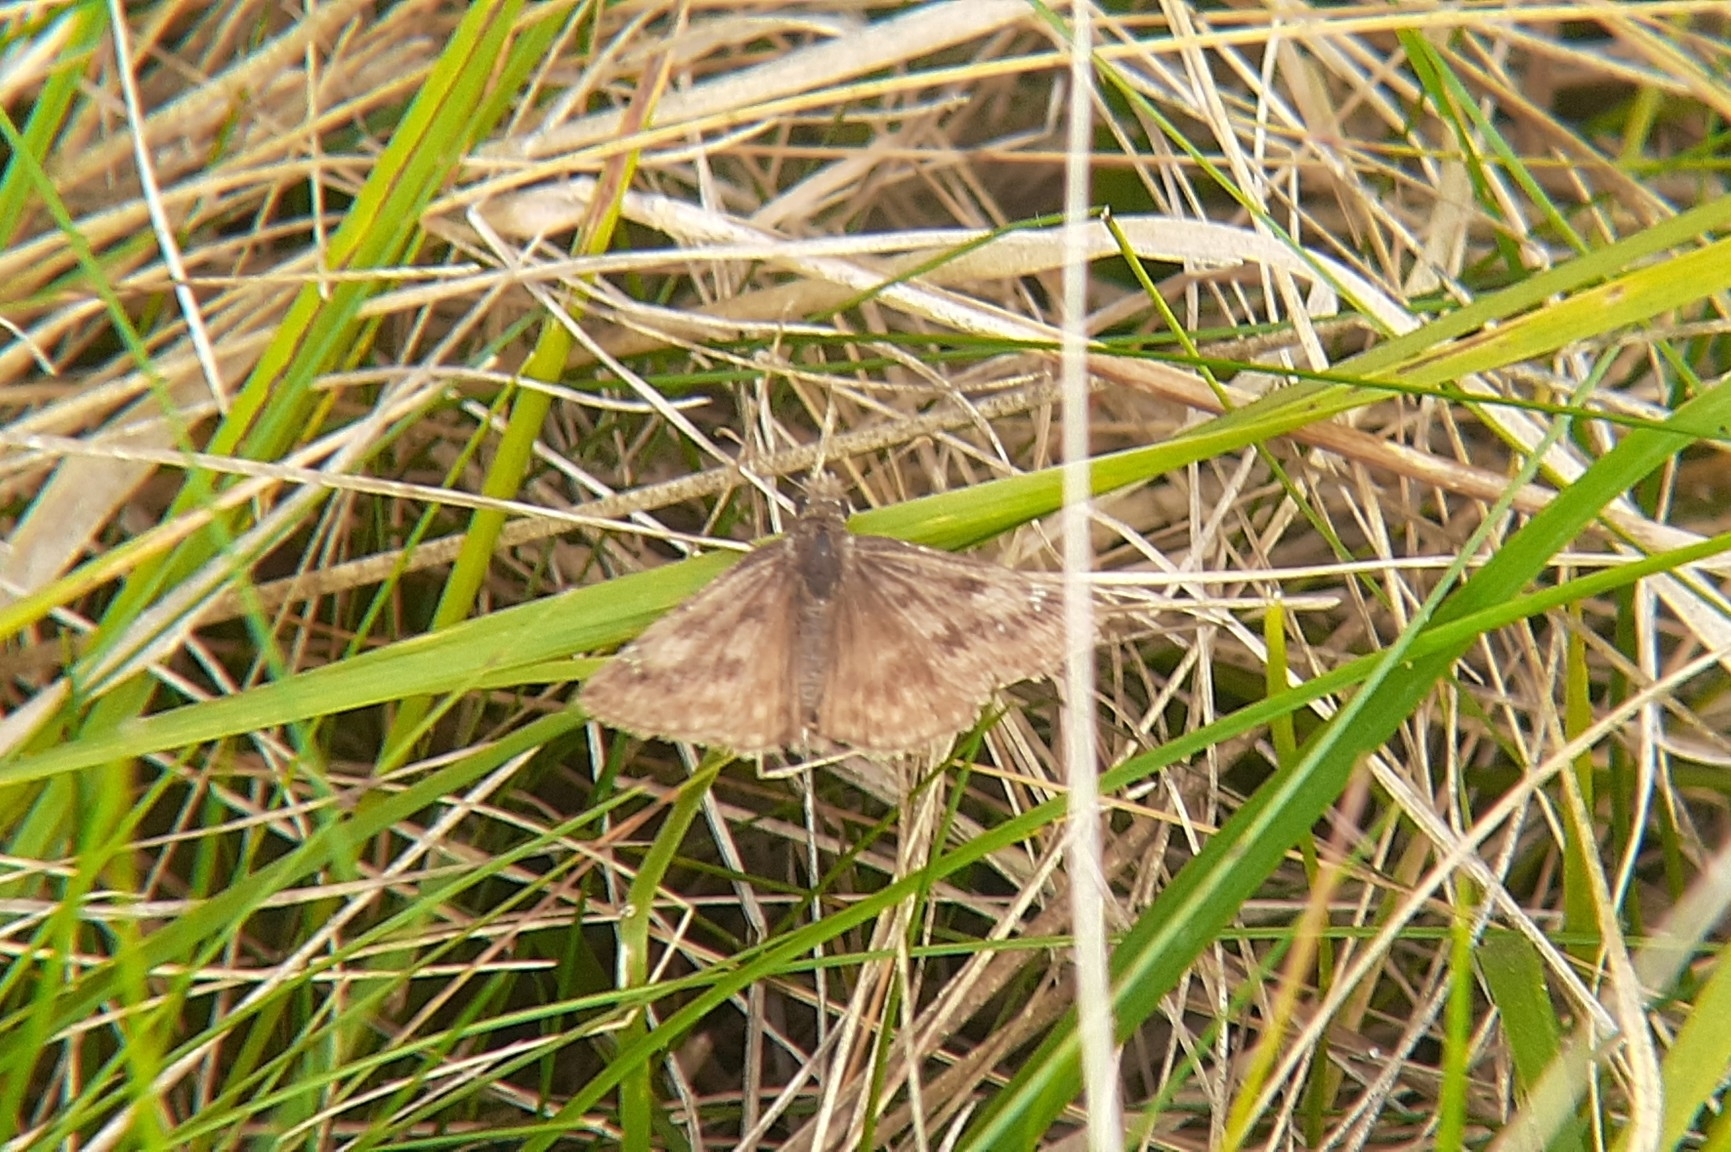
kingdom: Animalia
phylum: Arthropoda
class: Insecta
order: Lepidoptera
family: Hesperiidae
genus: Erynnis
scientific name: Erynnis baptisiae
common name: Wild indigo duskywing
